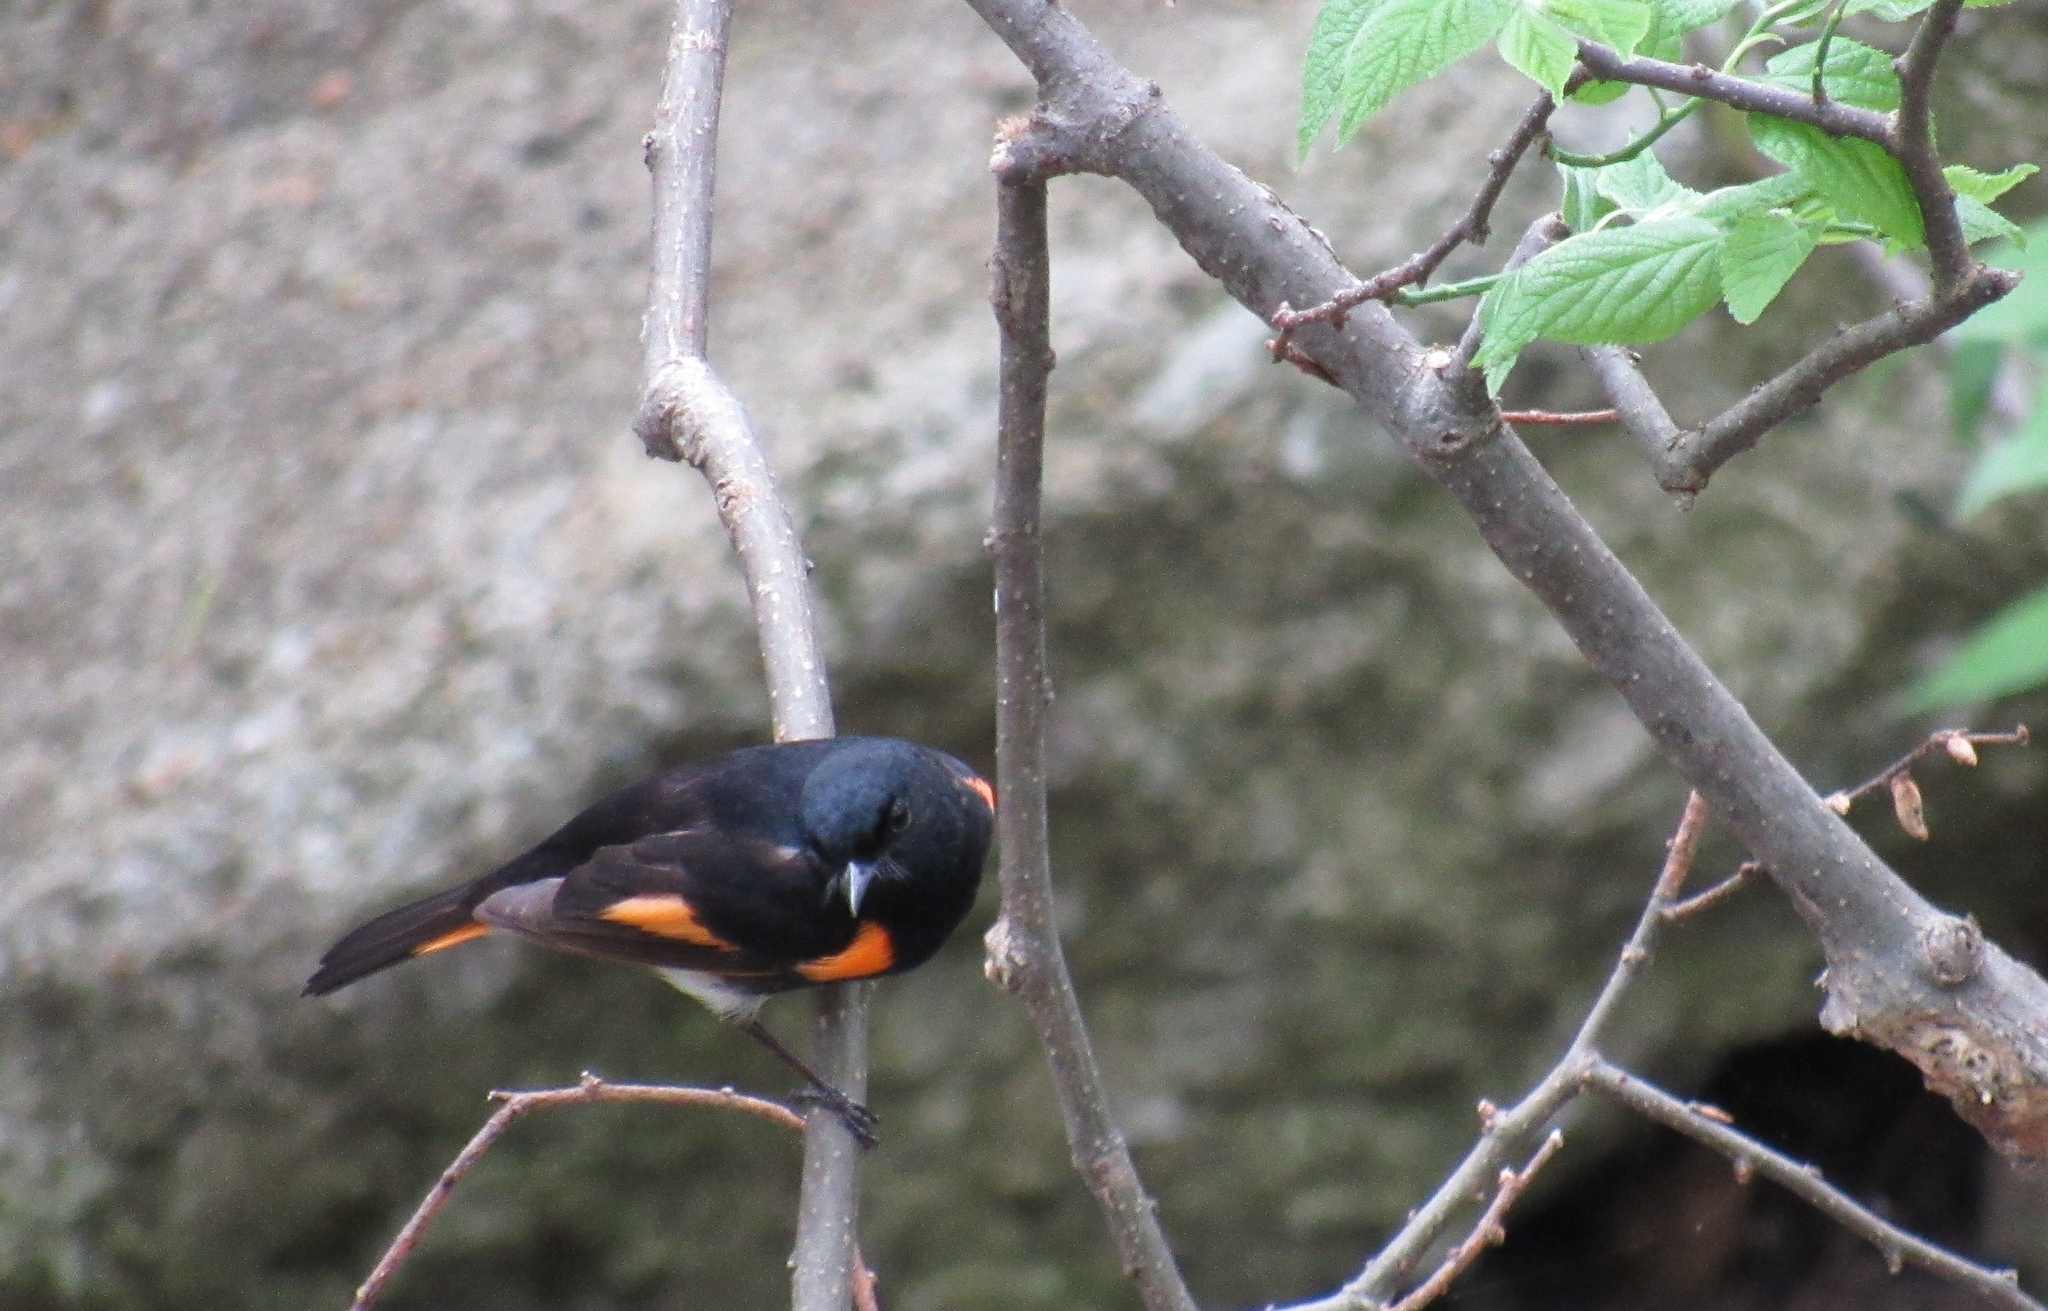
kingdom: Animalia
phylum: Chordata
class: Aves
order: Passeriformes
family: Parulidae
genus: Setophaga
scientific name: Setophaga ruticilla
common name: American redstart
